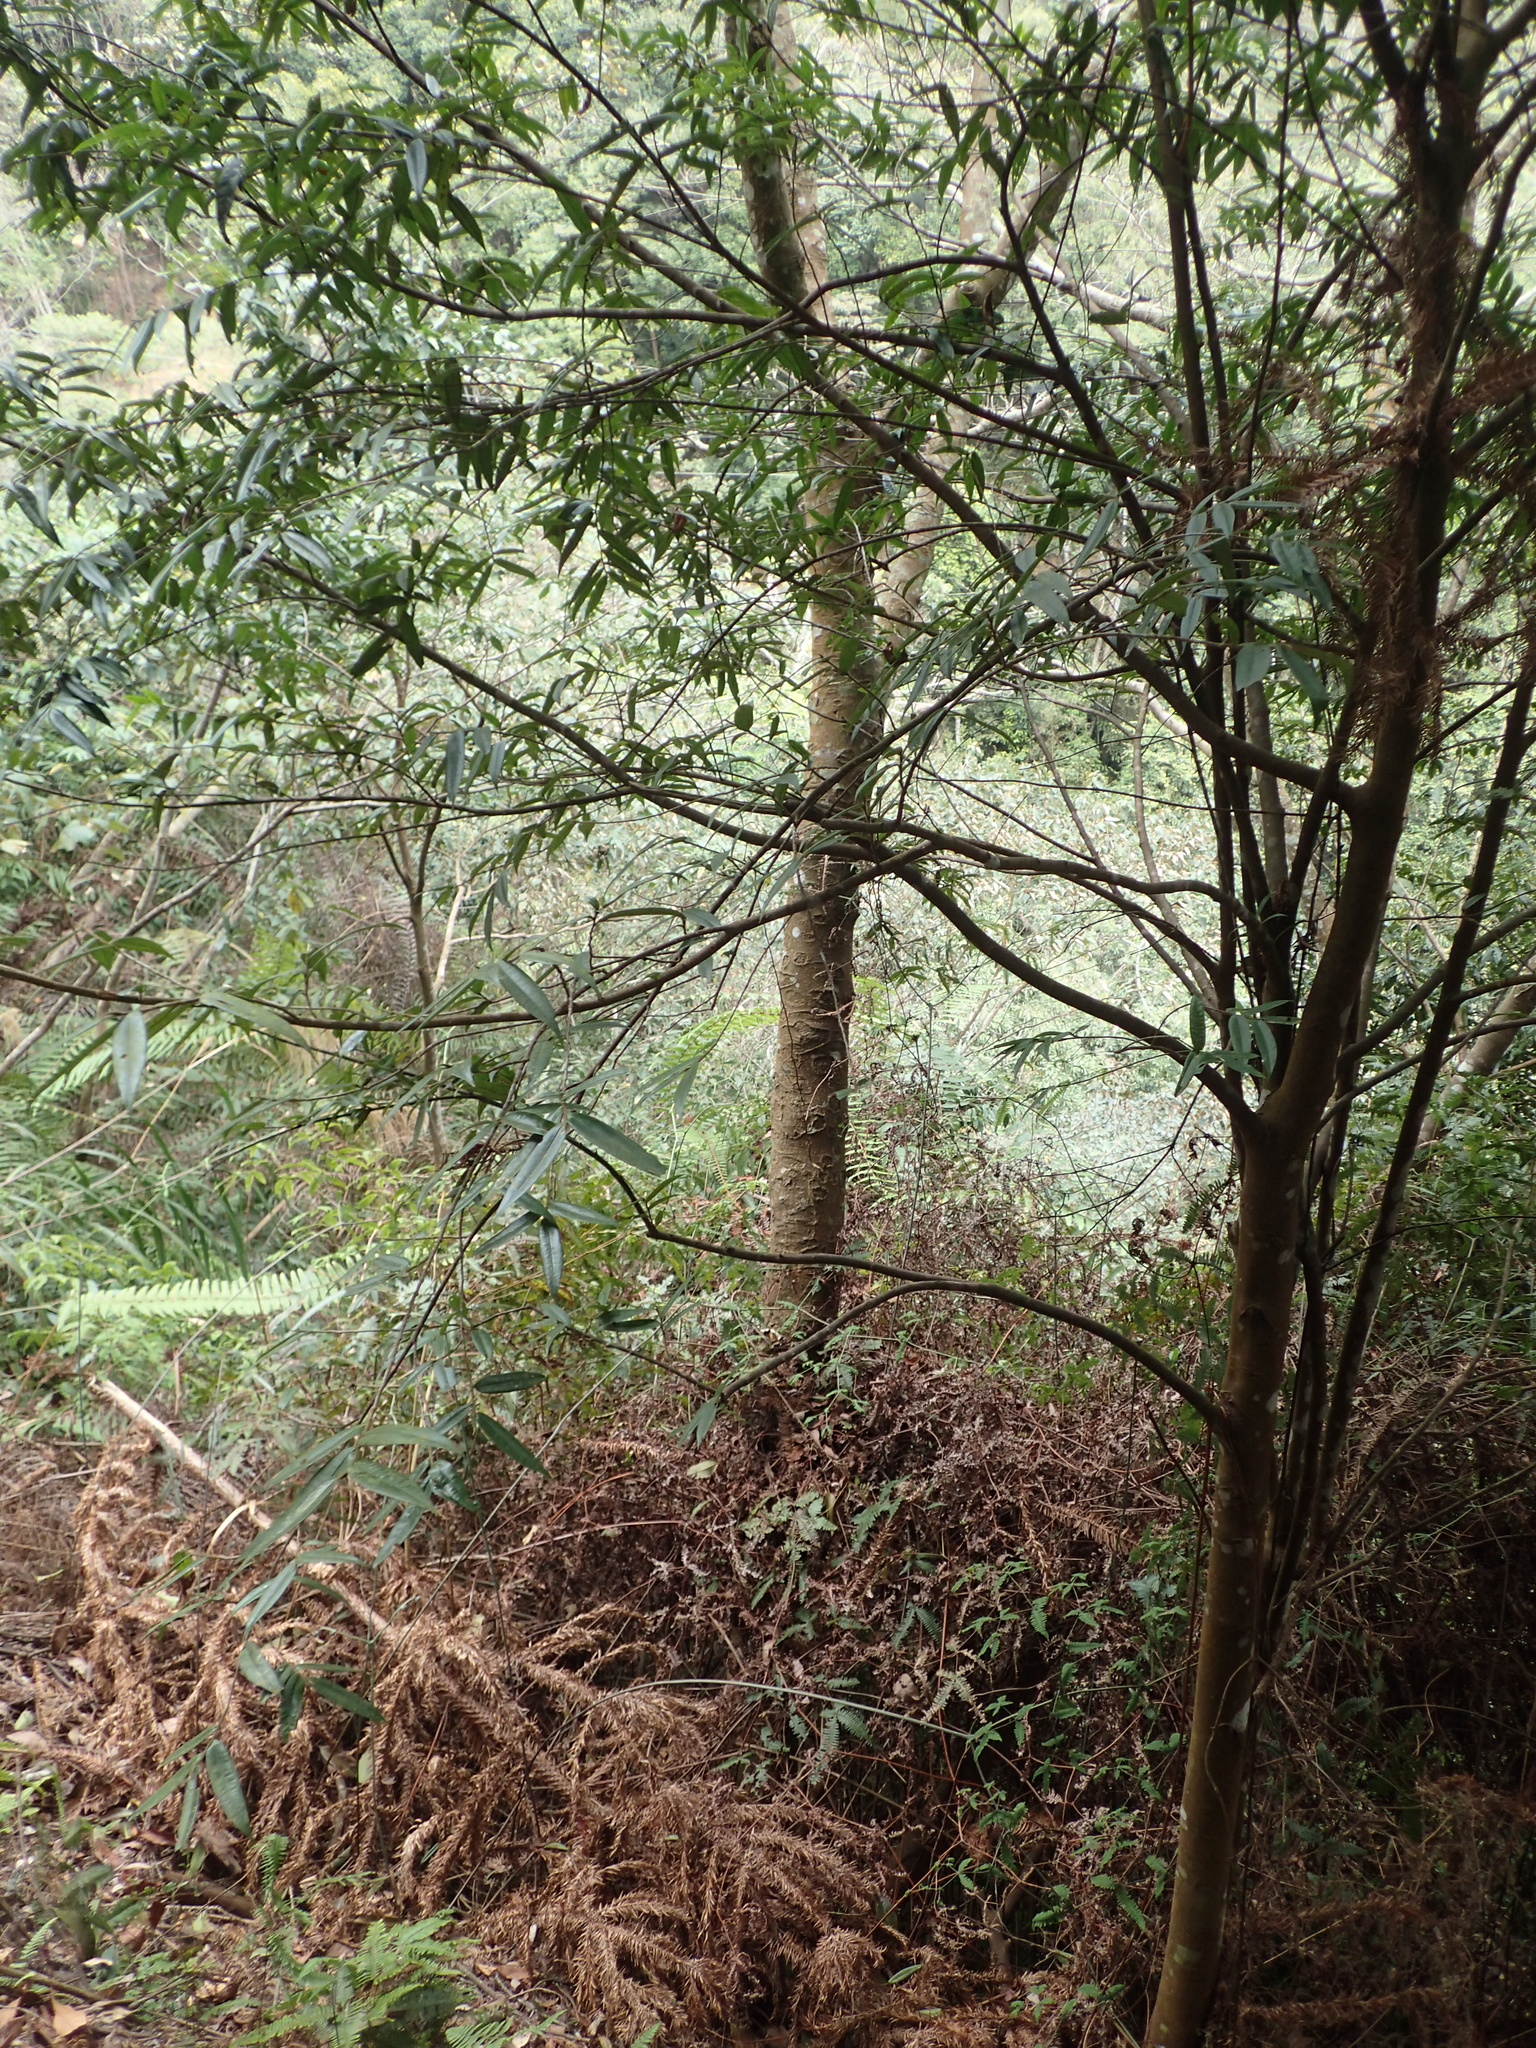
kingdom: Plantae
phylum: Tracheophyta
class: Magnoliopsida
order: Ericales
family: Pentaphylacaceae
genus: Eurya
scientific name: Eurya strigillosa
